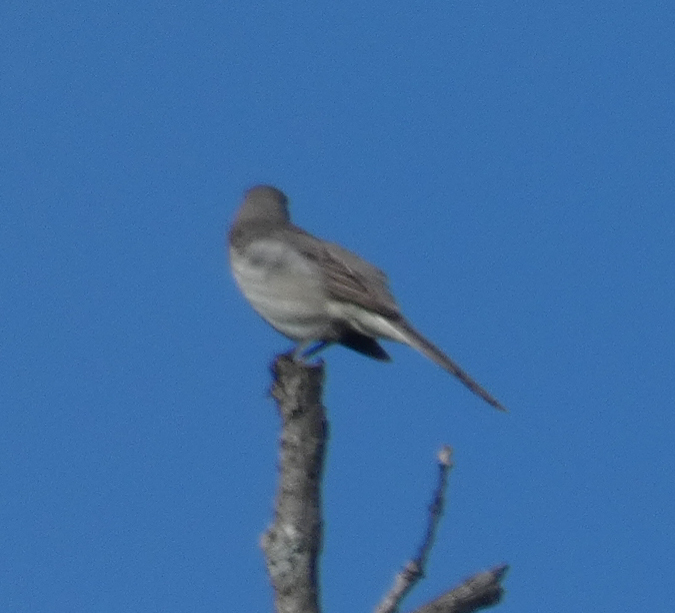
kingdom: Animalia
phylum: Chordata
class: Aves
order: Passeriformes
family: Mimidae
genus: Mimus
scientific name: Mimus polyglottos
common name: Northern mockingbird
